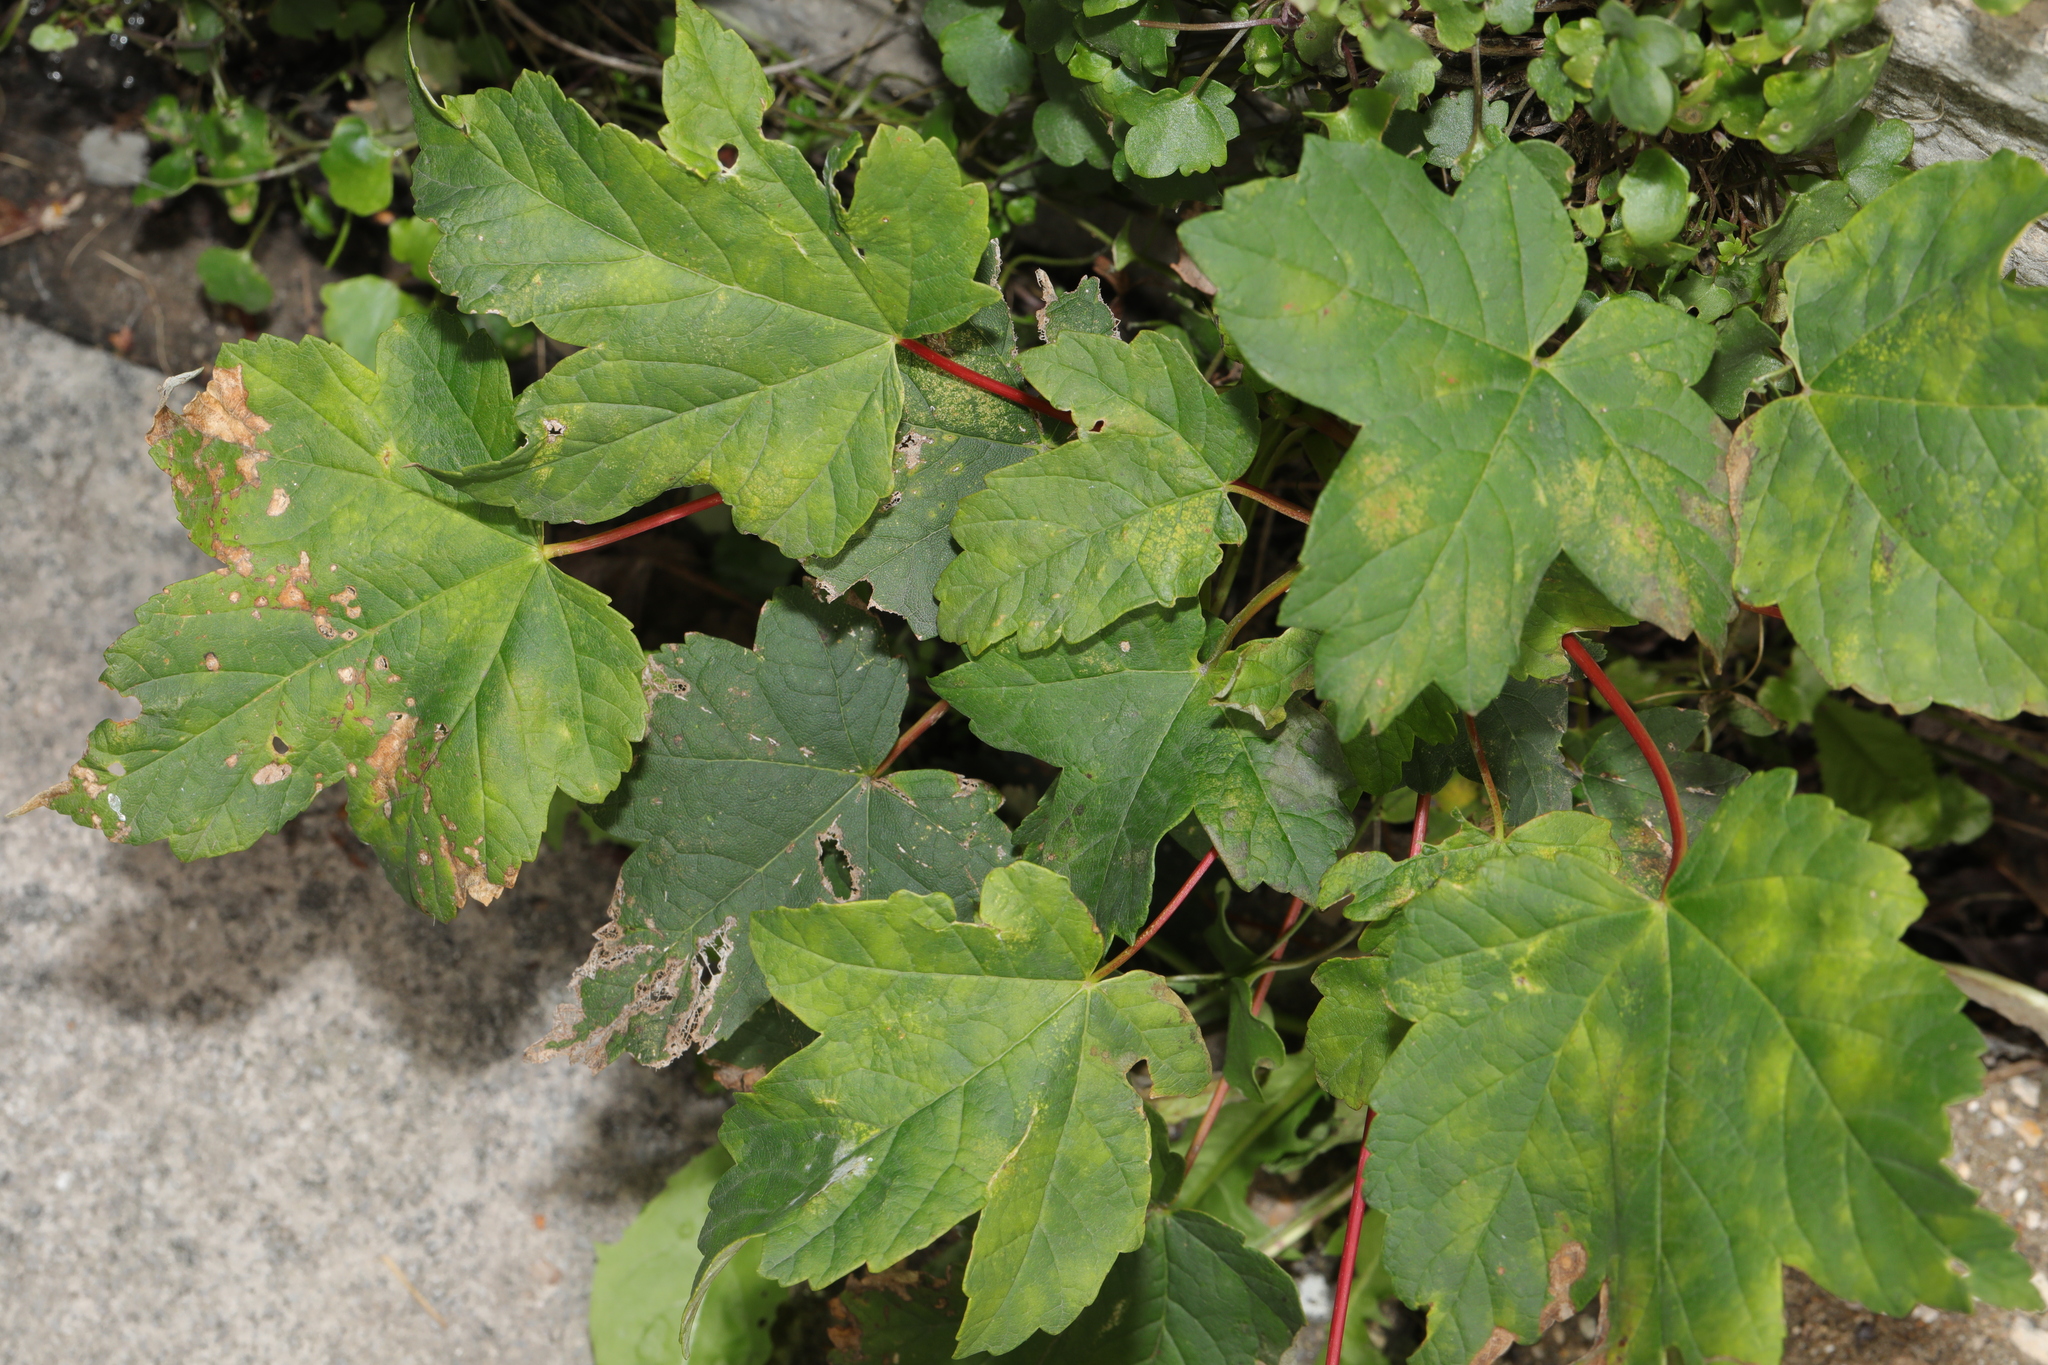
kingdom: Plantae
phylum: Tracheophyta
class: Magnoliopsida
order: Sapindales
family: Sapindaceae
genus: Acer
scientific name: Acer pseudoplatanus
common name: Sycamore
